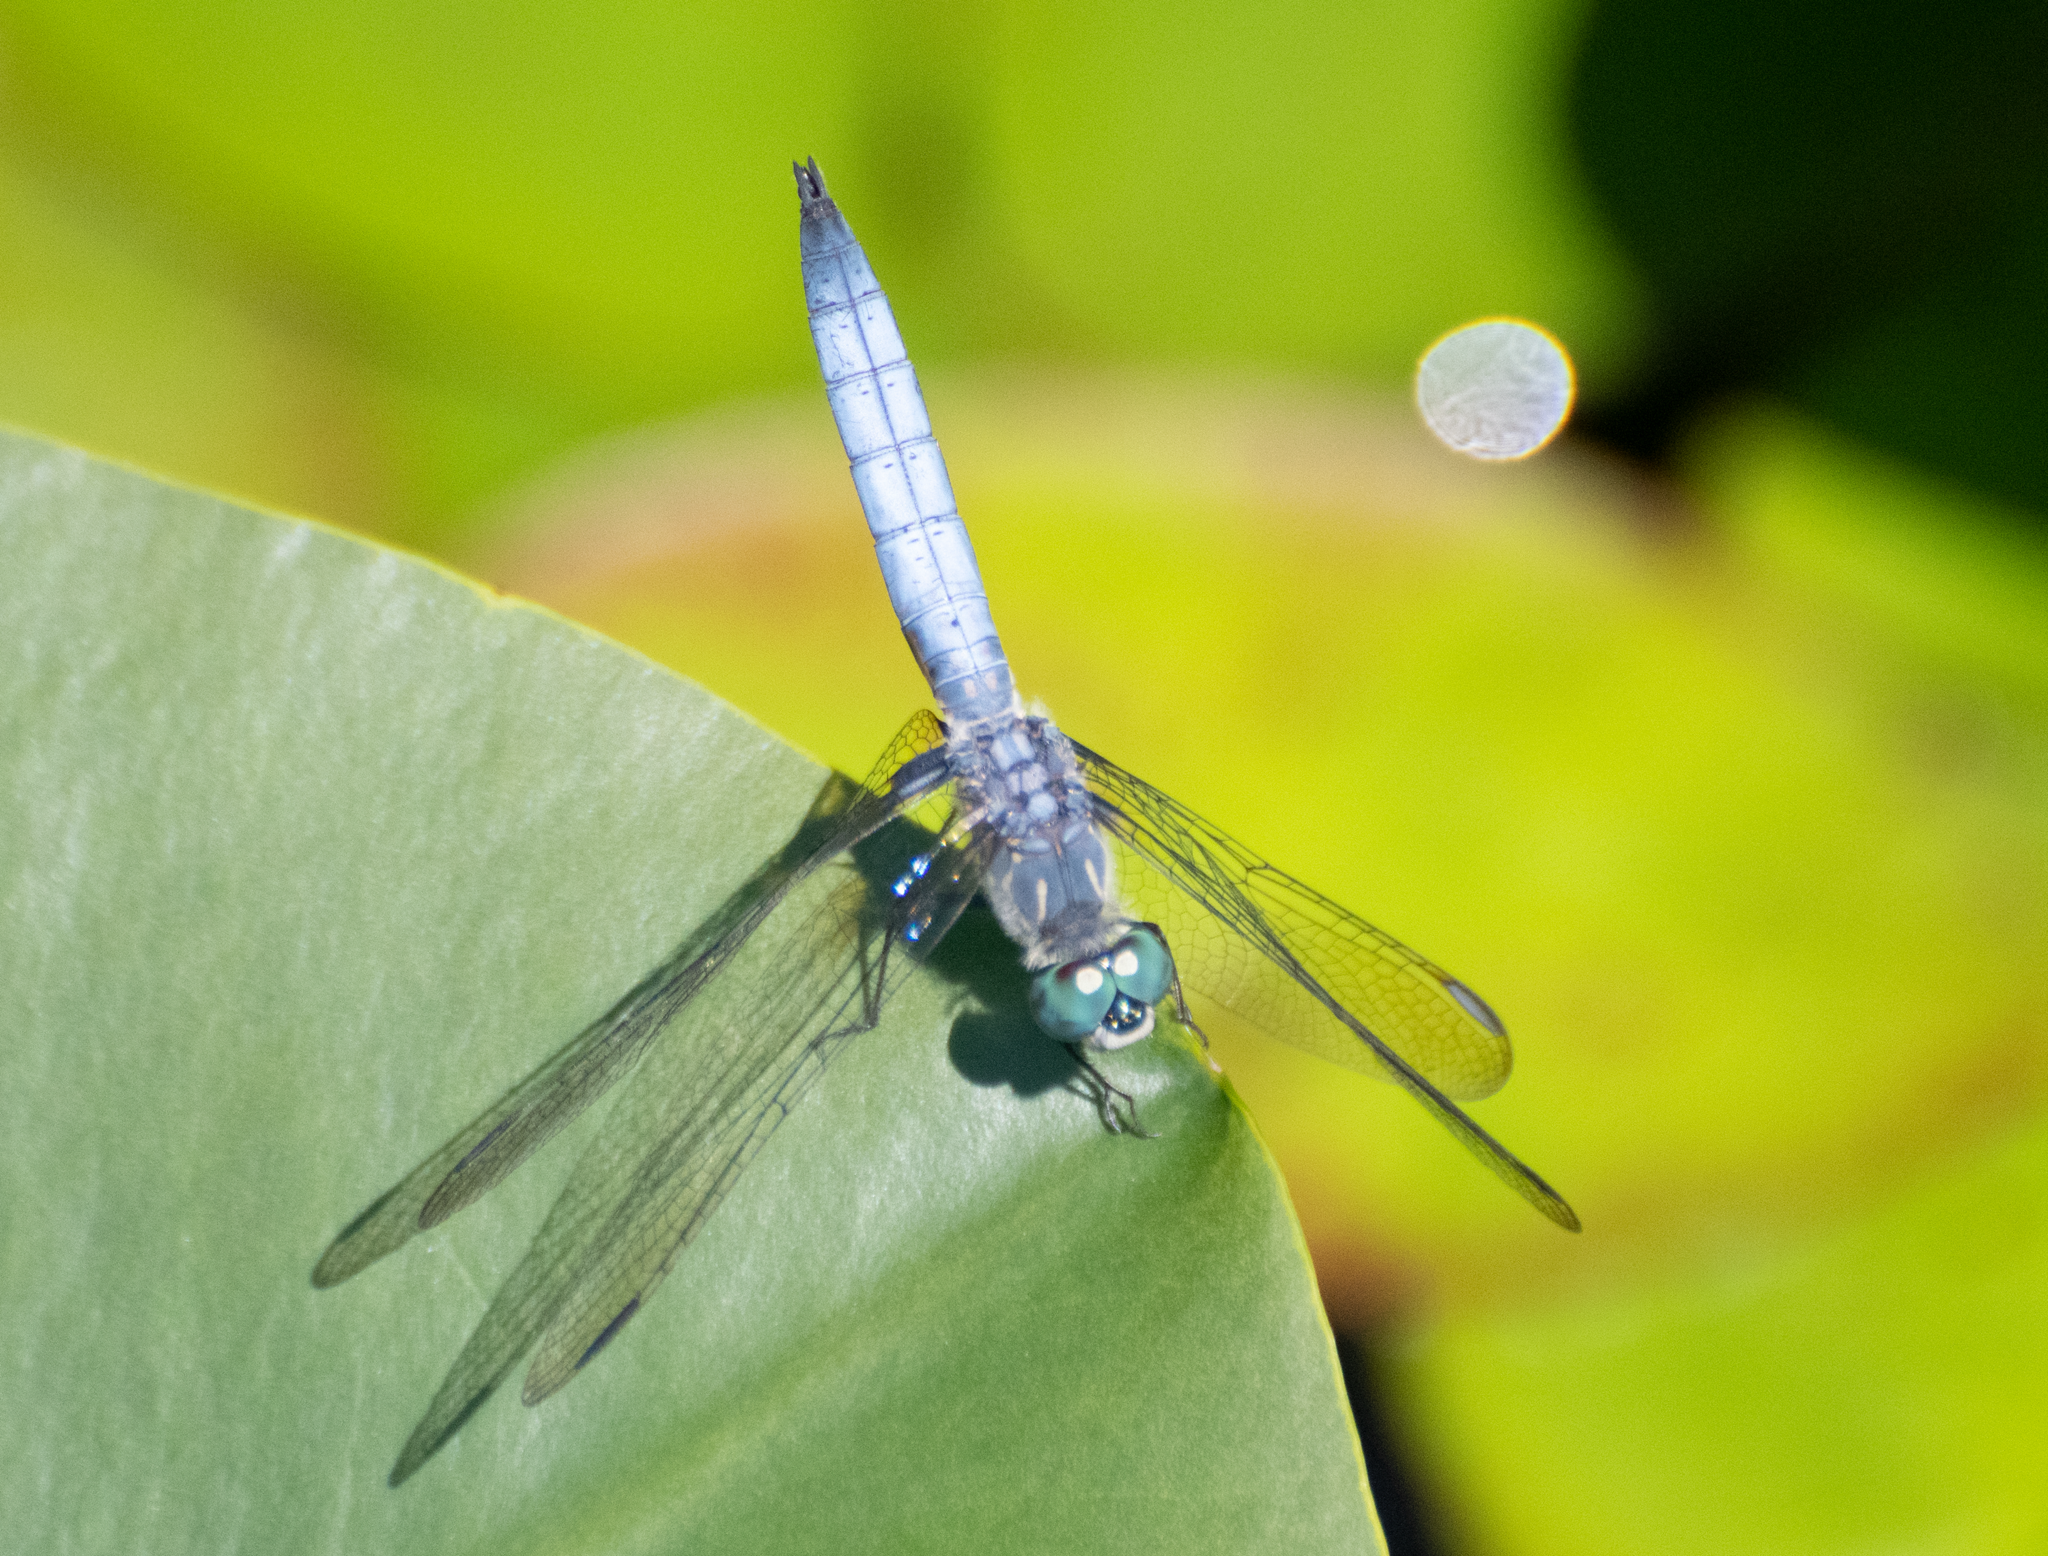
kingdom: Animalia
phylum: Arthropoda
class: Insecta
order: Odonata
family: Libellulidae
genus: Pachydiplax
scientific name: Pachydiplax longipennis
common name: Blue dasher
